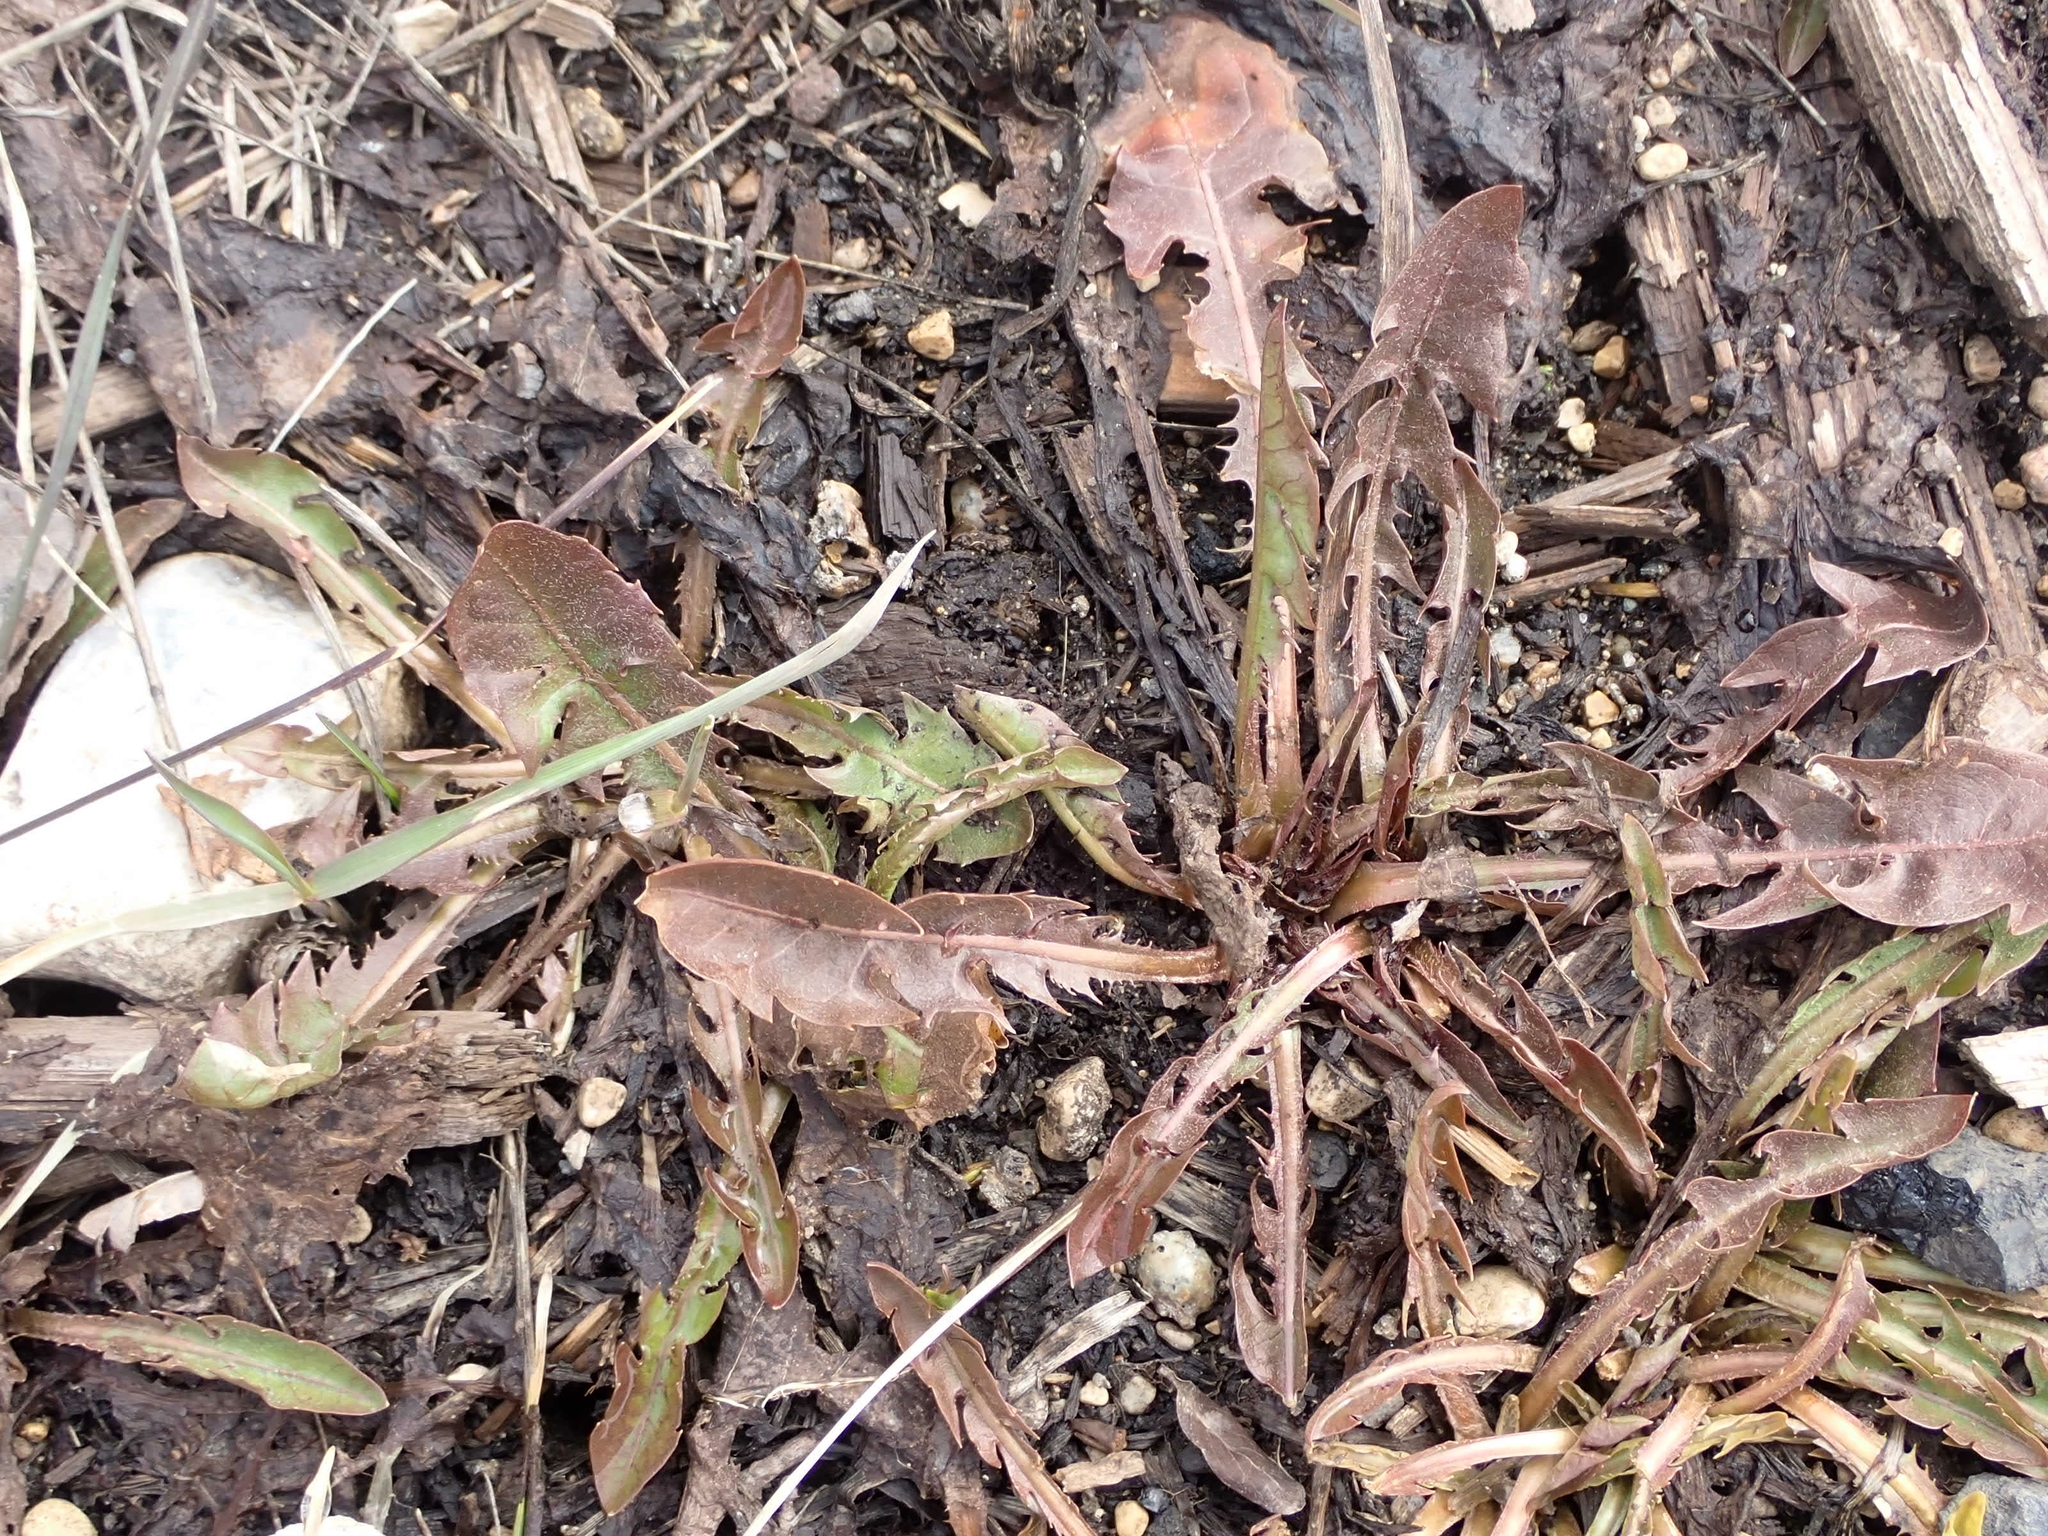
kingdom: Plantae
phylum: Tracheophyta
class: Magnoliopsida
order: Asterales
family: Asteraceae
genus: Taraxacum
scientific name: Taraxacum officinale
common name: Common dandelion
